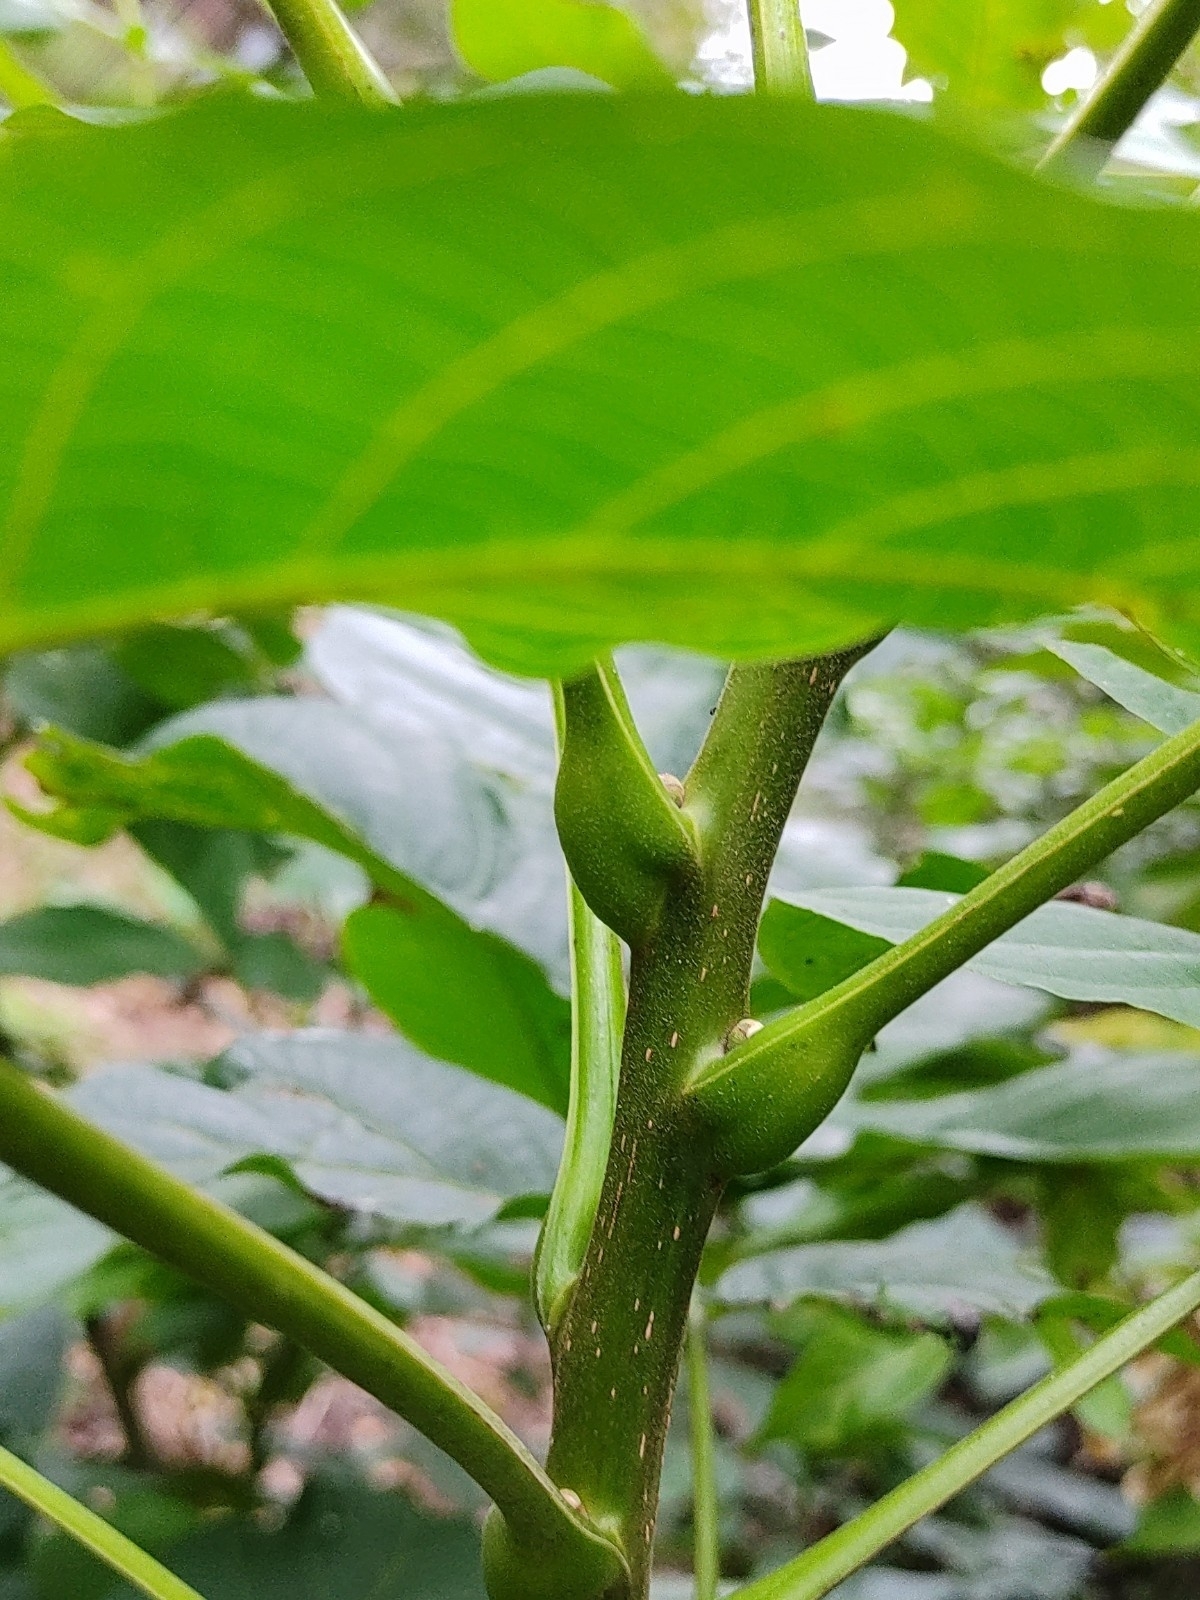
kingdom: Plantae
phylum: Tracheophyta
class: Magnoliopsida
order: Fagales
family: Juglandaceae
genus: Juglans
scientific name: Juglans regia
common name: Walnut
